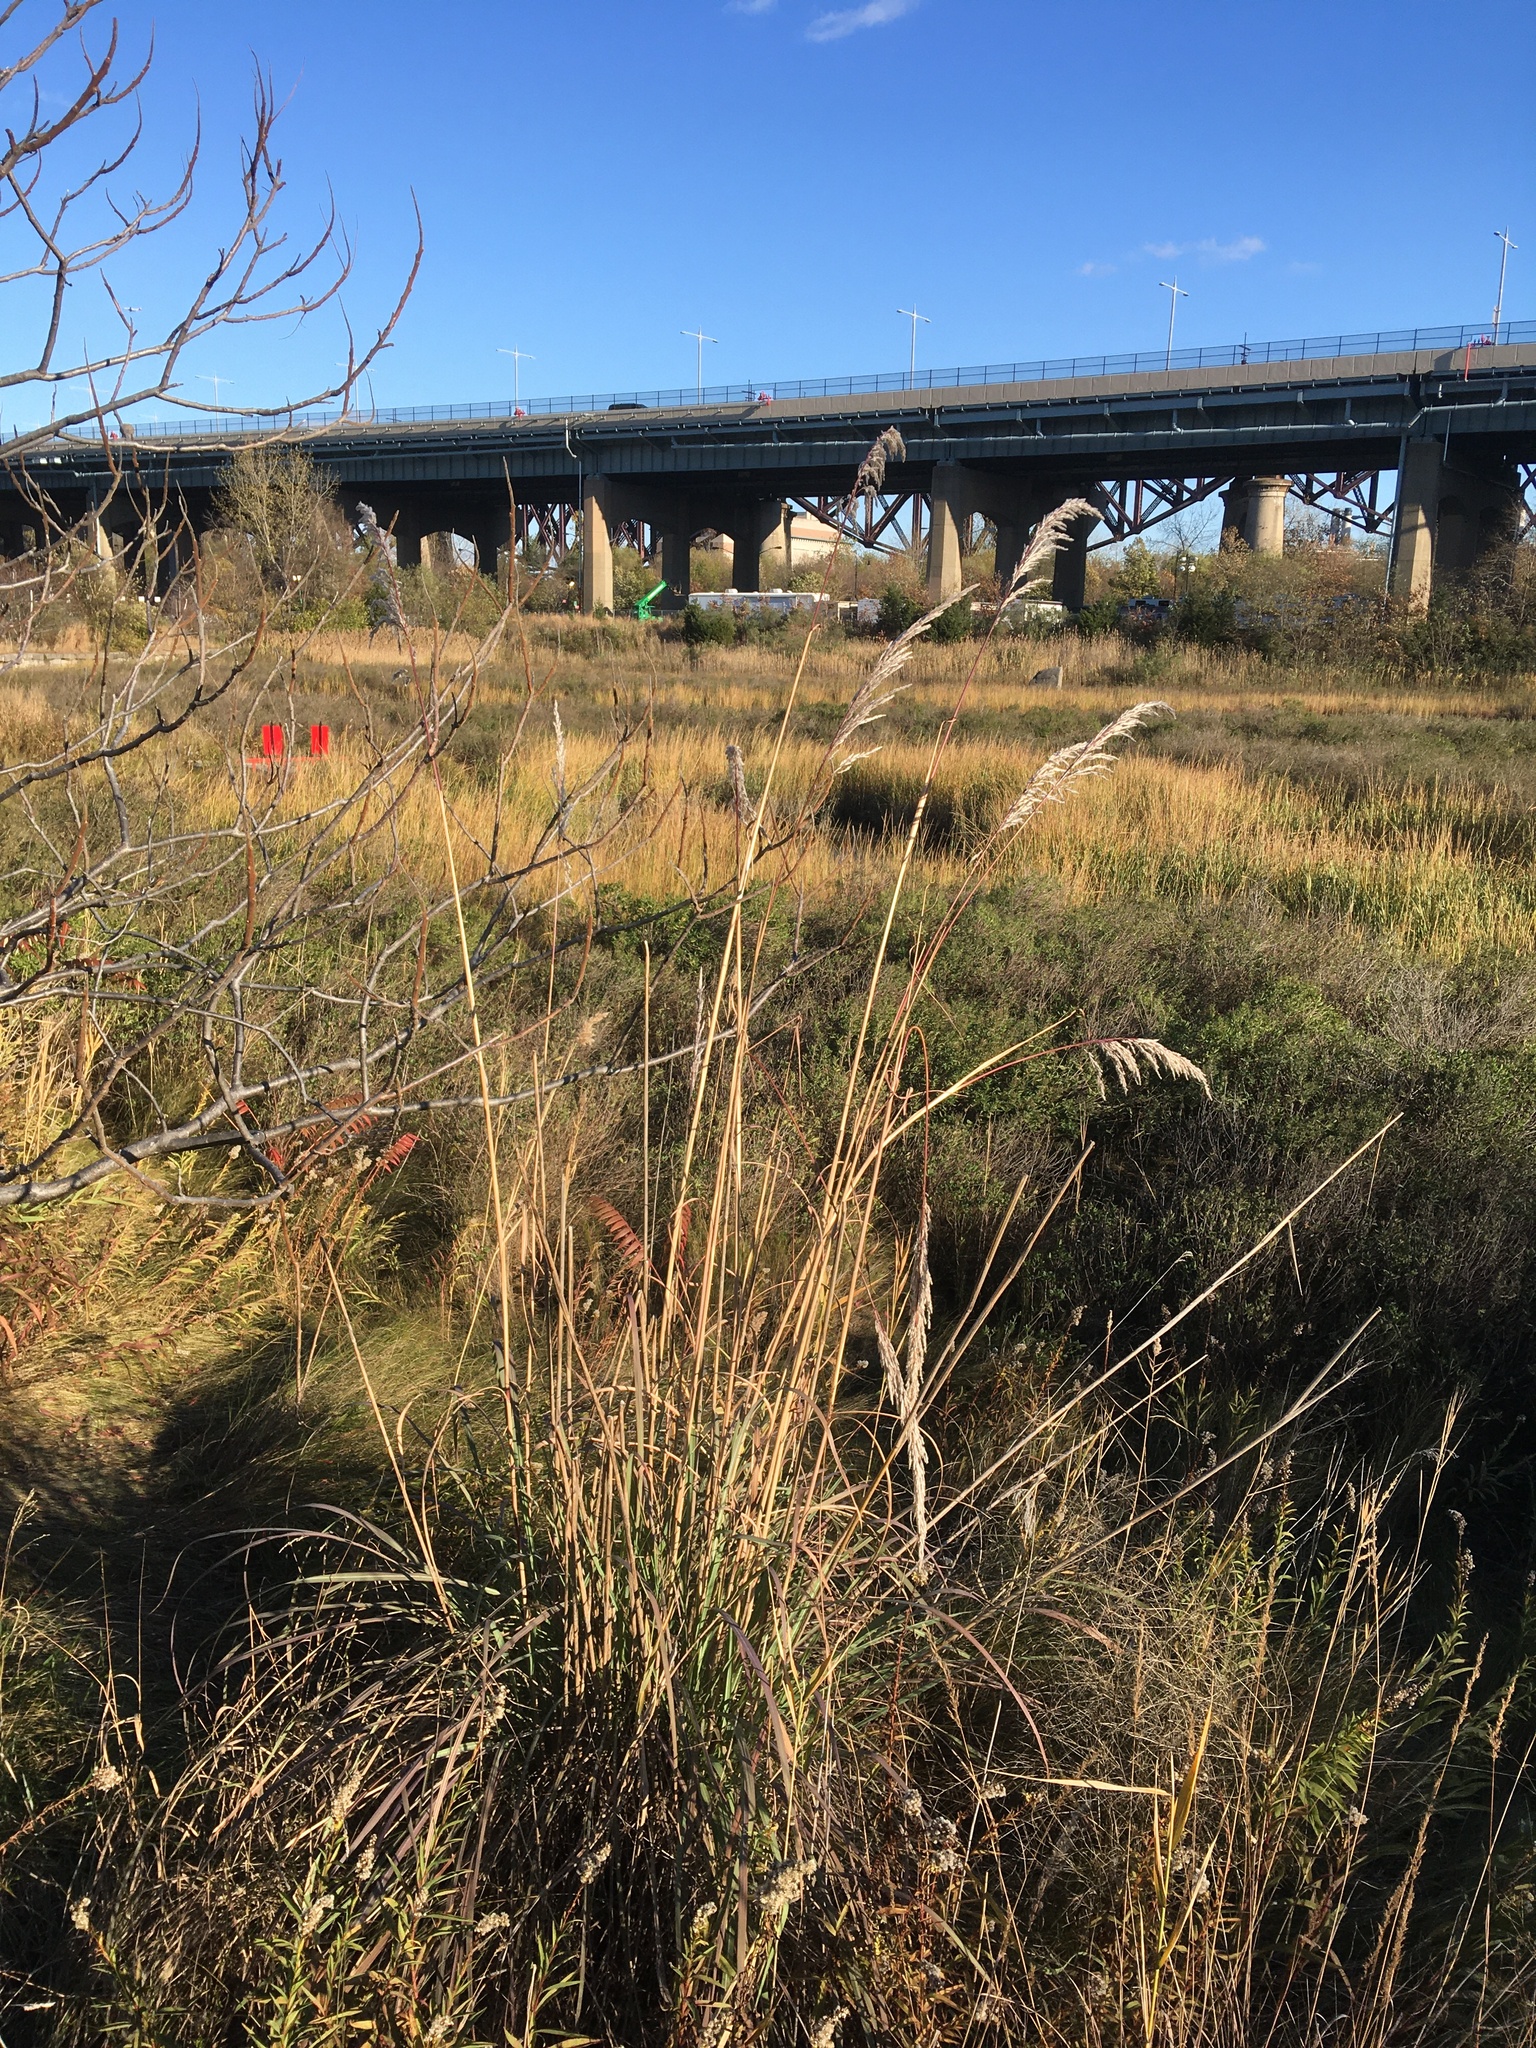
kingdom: Plantae
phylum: Tracheophyta
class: Liliopsida
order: Poales
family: Poaceae
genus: Tripidium
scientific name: Tripidium ravennae
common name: Ravenna grass
